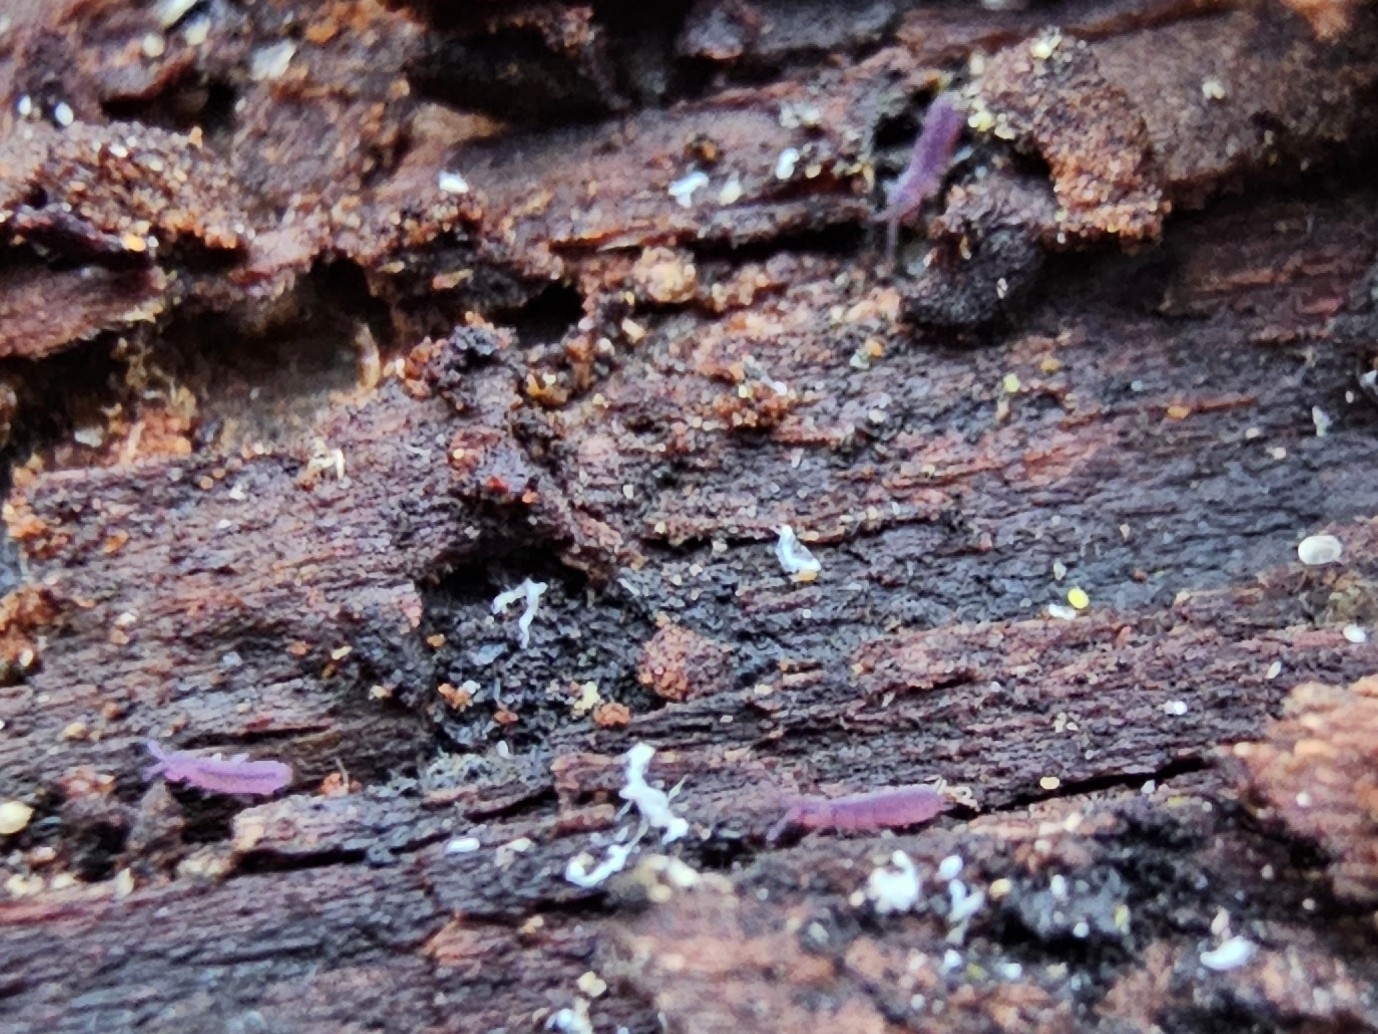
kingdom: Animalia
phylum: Arthropoda
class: Collembola
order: Entomobryomorpha
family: Isotomidae
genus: Vertagopus
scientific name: Vertagopus asiaticus
